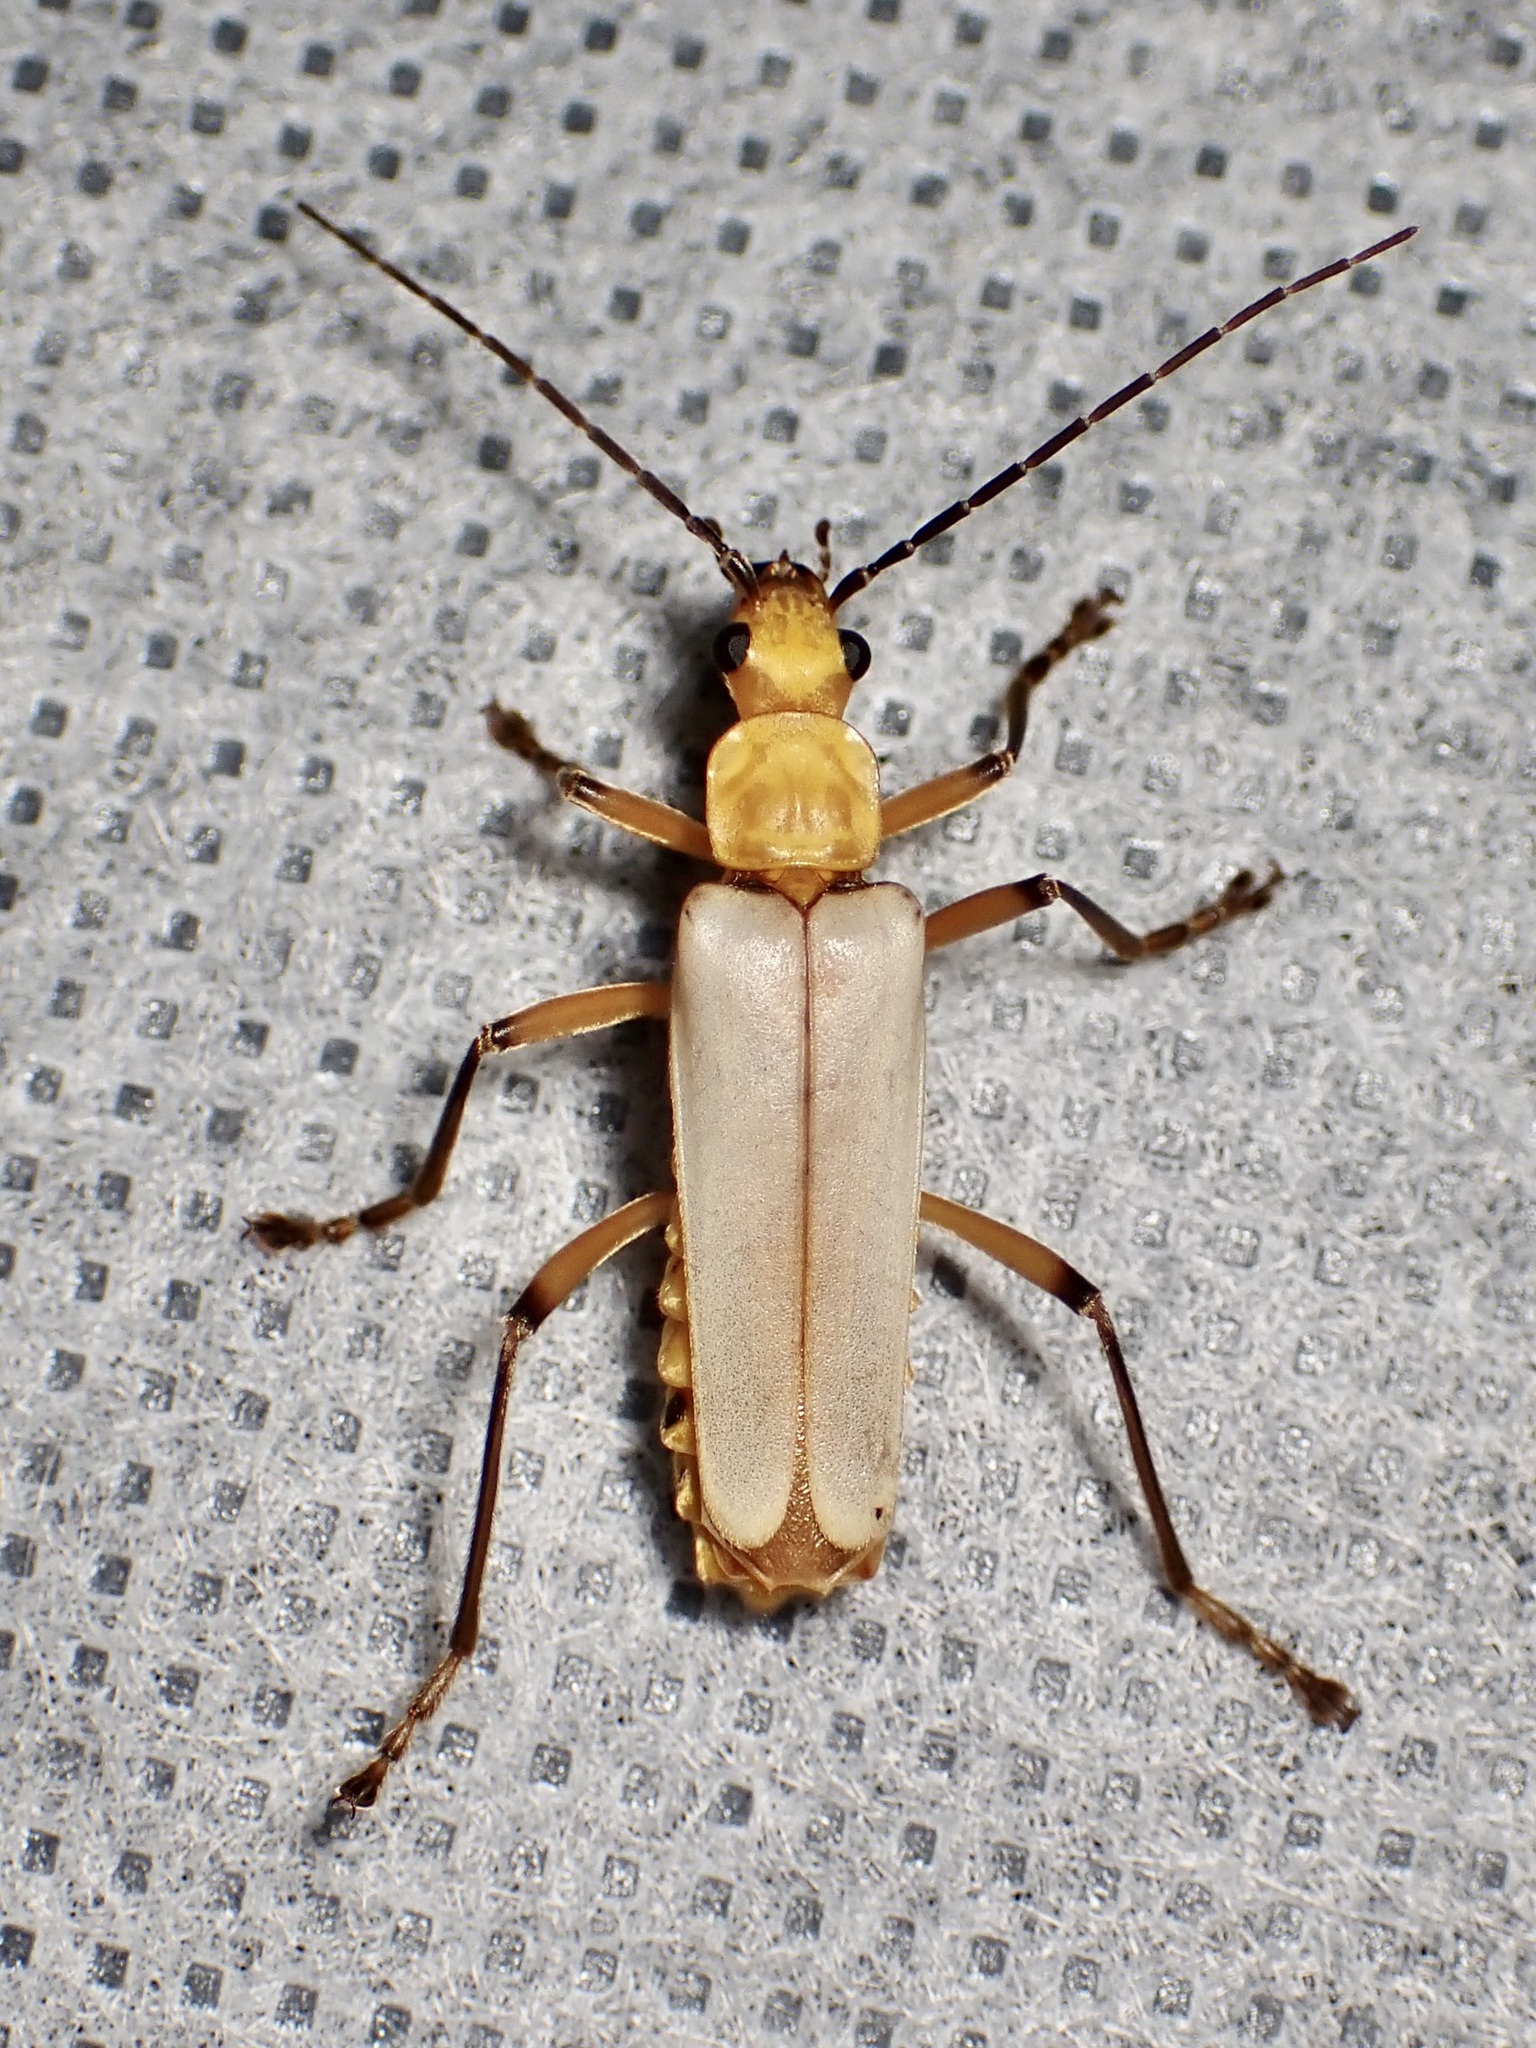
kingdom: Animalia
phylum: Arthropoda
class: Insecta
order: Coleoptera
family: Cantharidae
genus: Chauliognathus
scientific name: Chauliognathus
